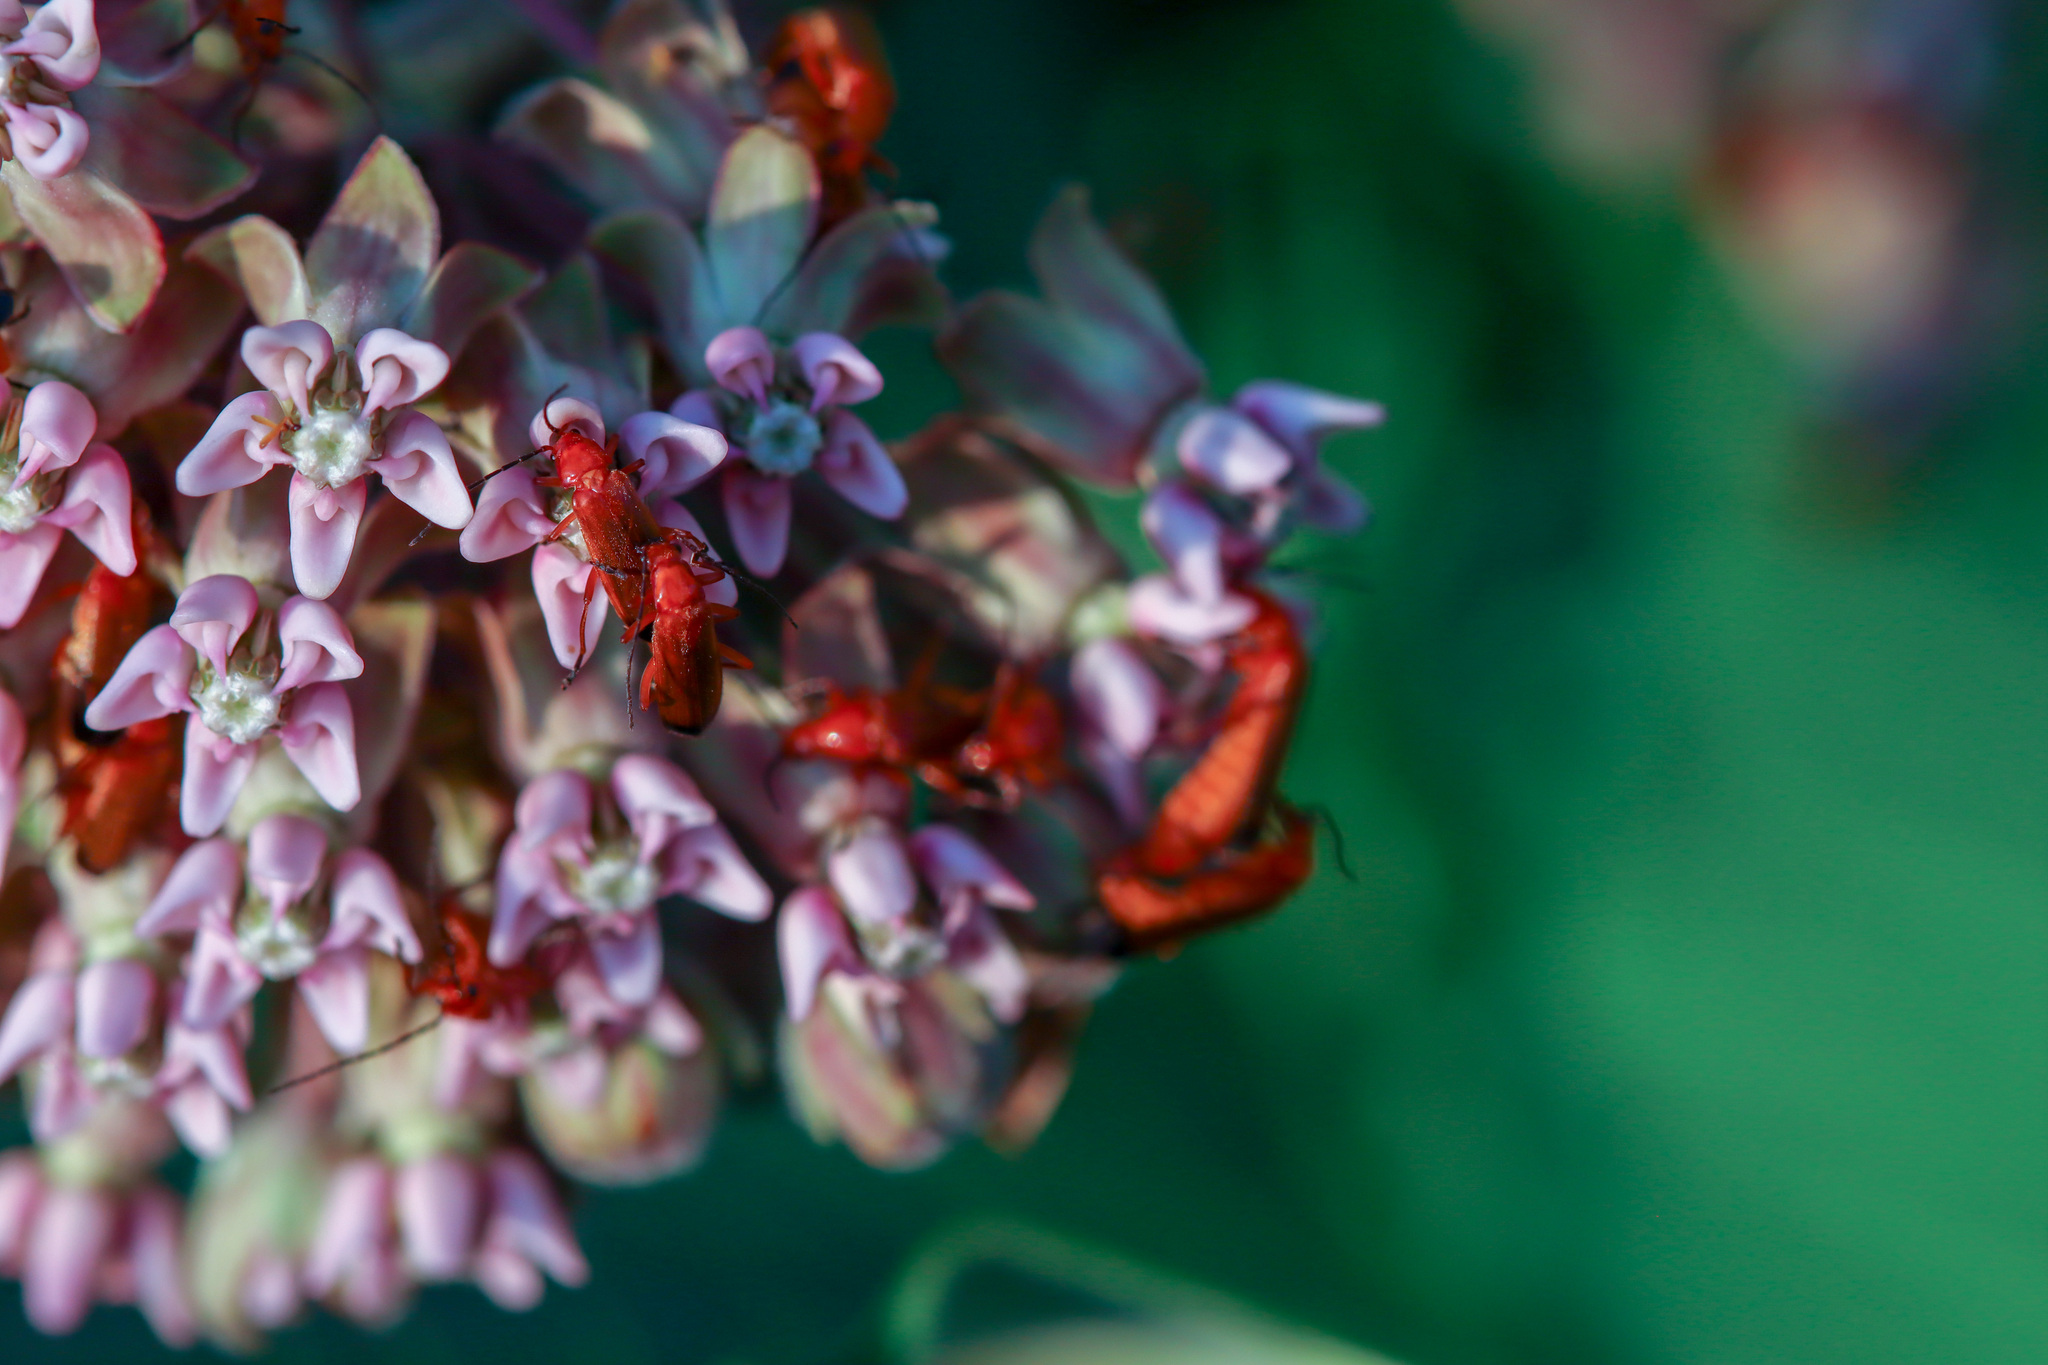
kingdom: Animalia
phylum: Arthropoda
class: Insecta
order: Coleoptera
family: Cantharidae
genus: Rhagonycha
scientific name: Rhagonycha fulva
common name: Common red soldier beetle
